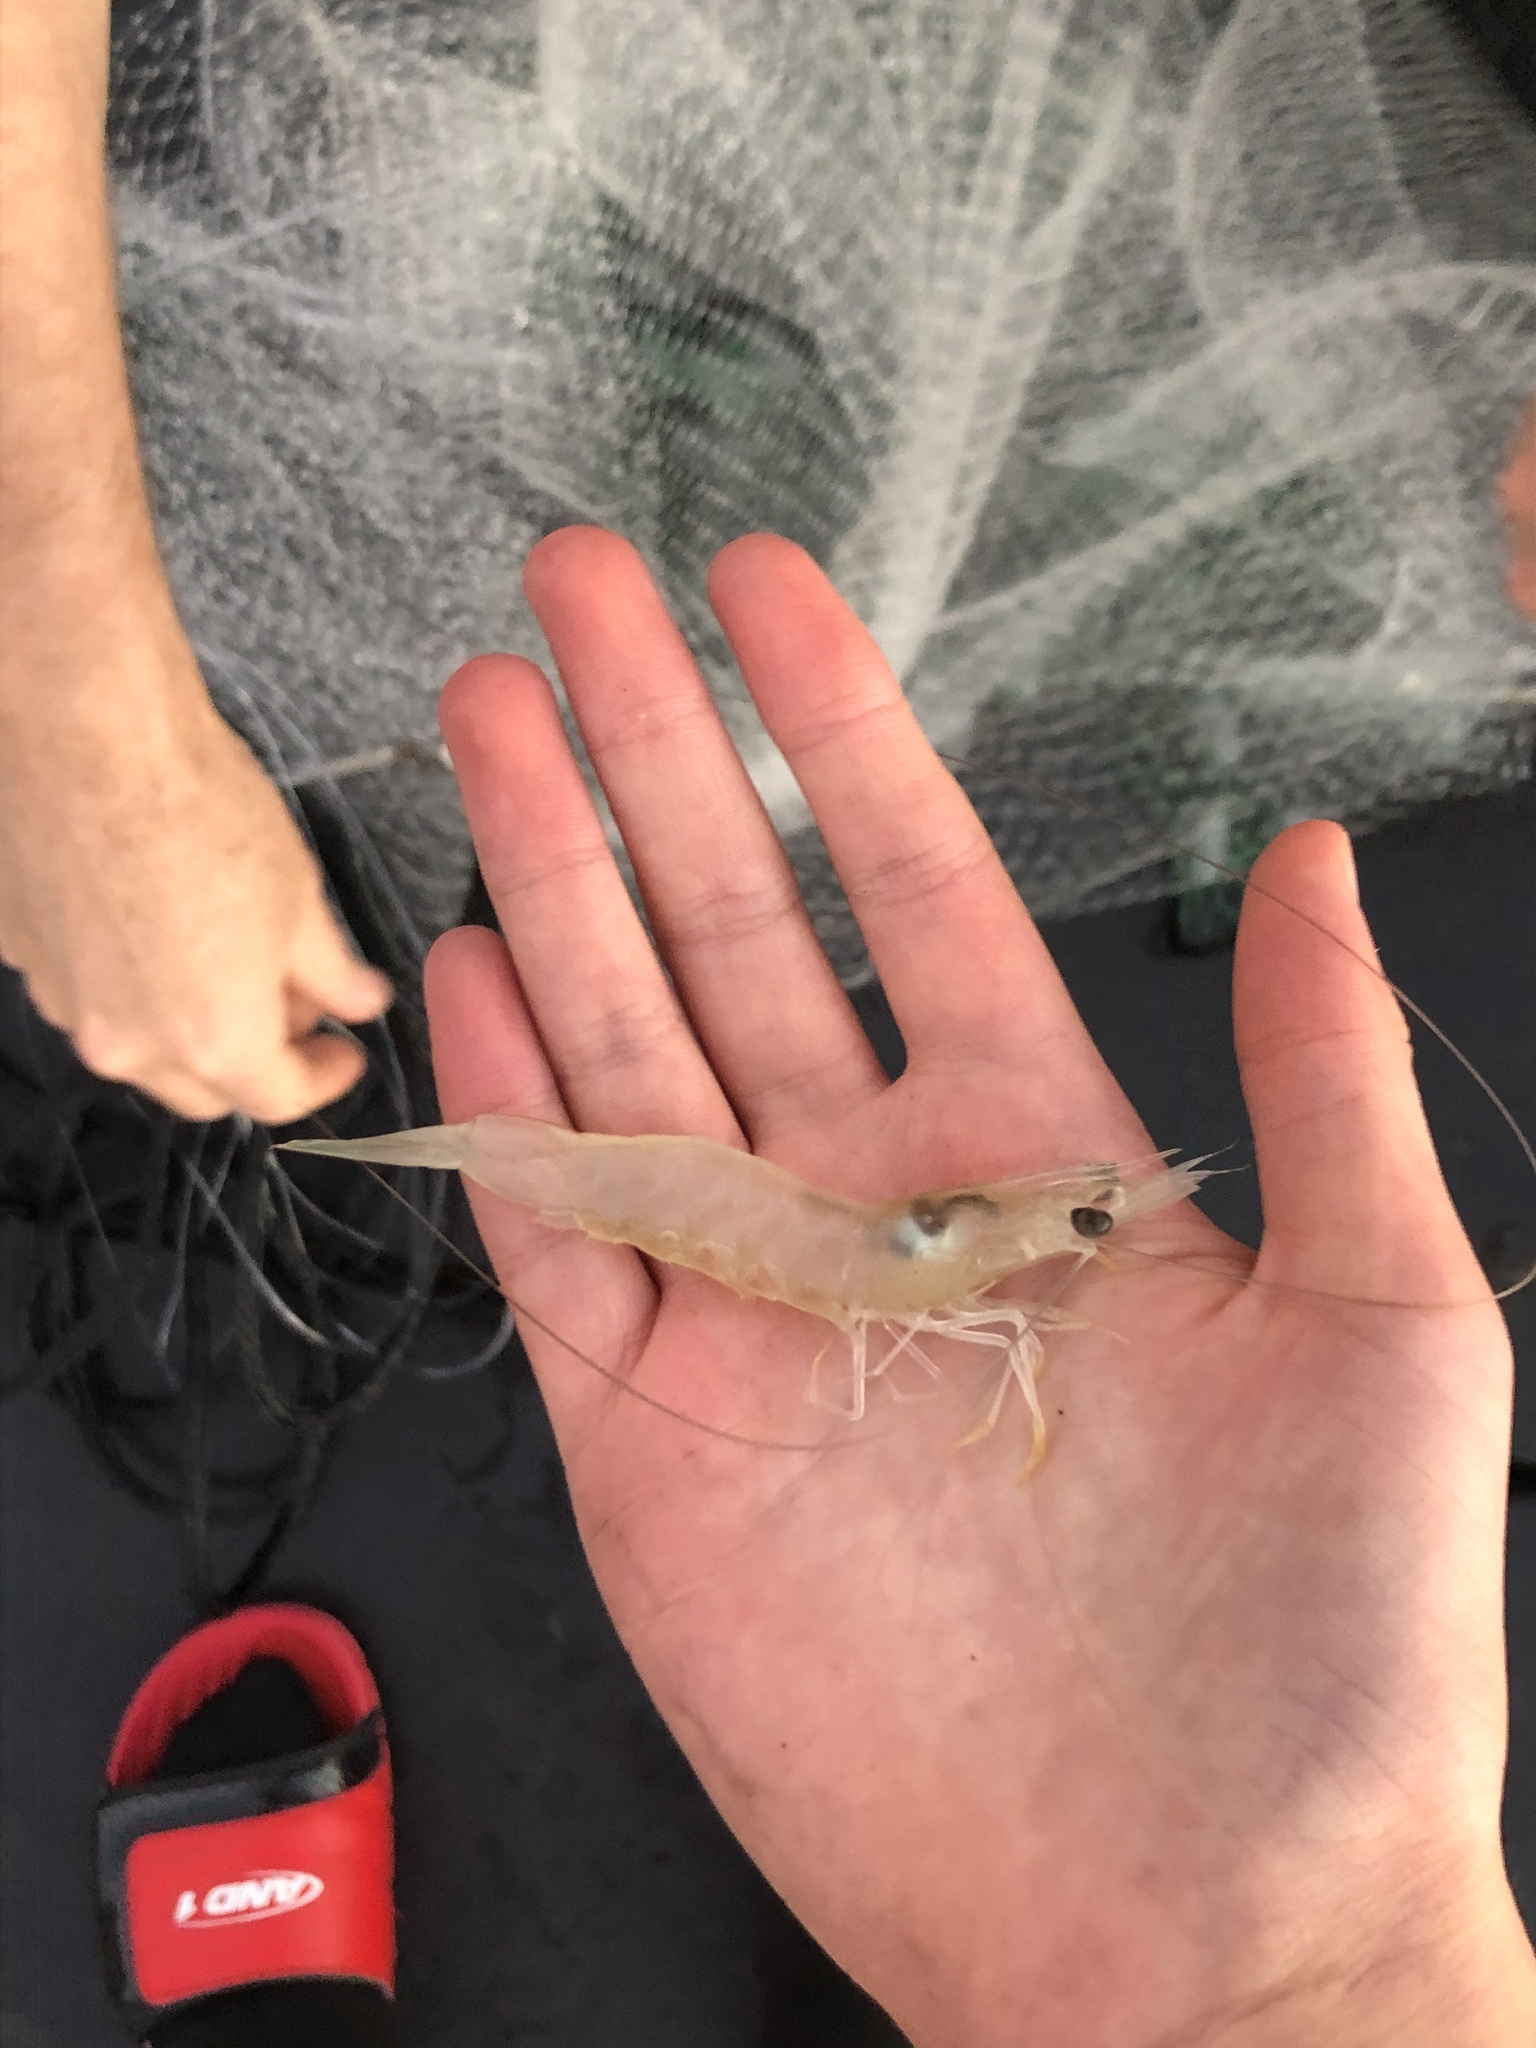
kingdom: Animalia
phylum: Arthropoda
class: Malacostraca
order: Decapoda
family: Penaeidae
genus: Penaeus
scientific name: Penaeus setiferus
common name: Northern white shrimp
